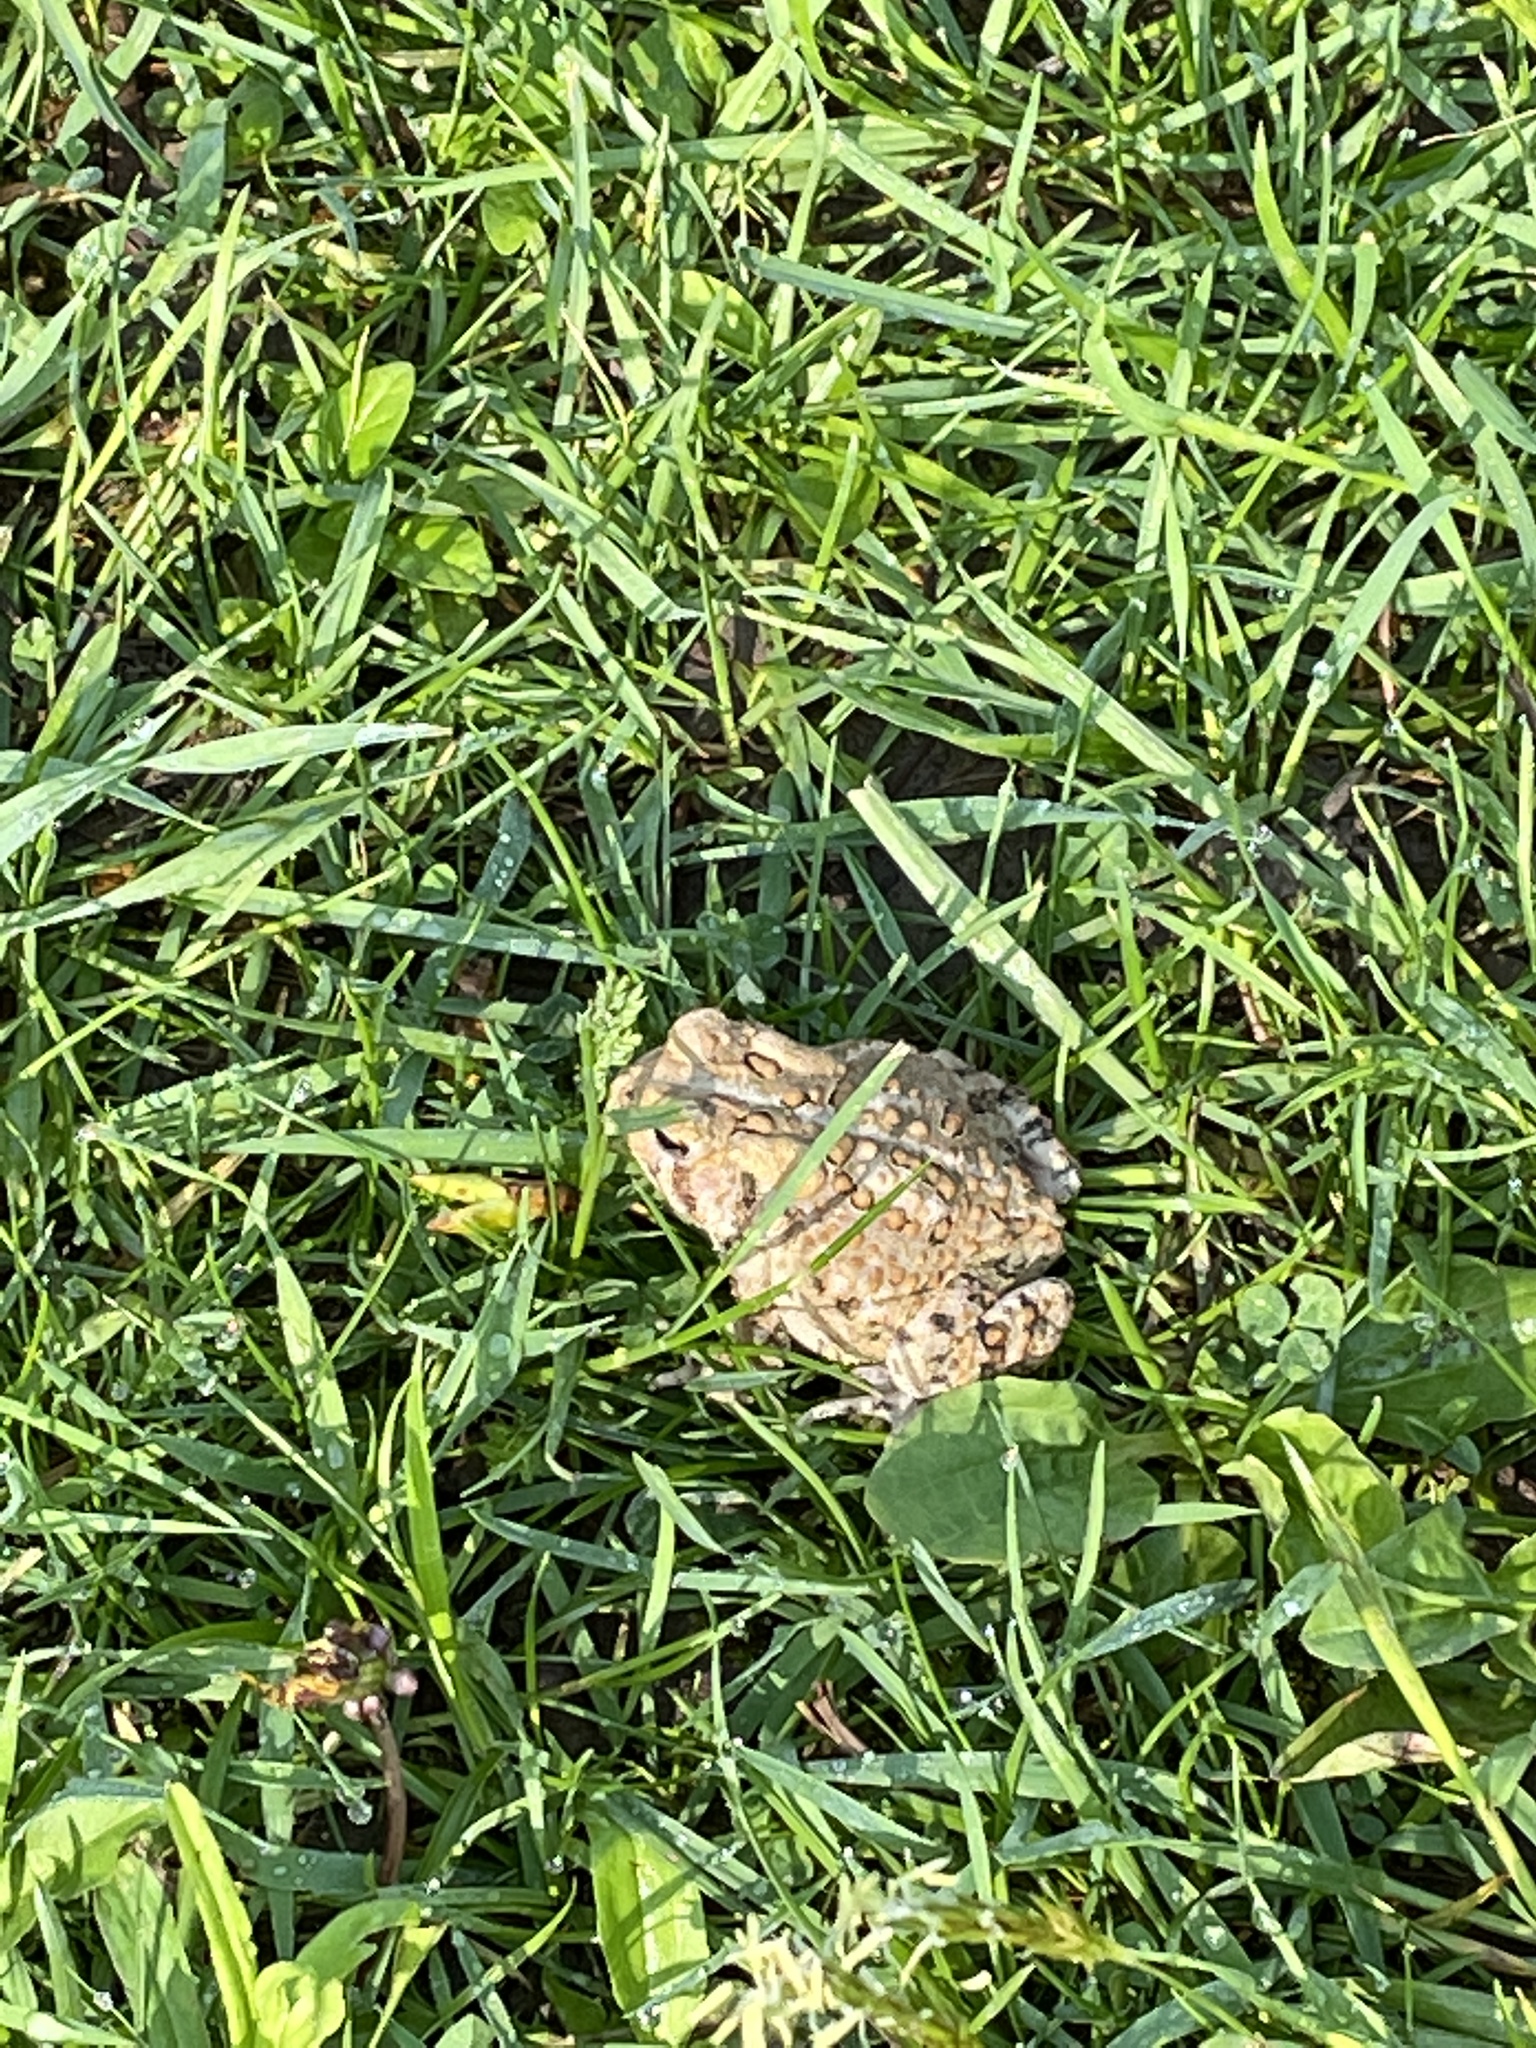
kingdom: Animalia
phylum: Chordata
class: Amphibia
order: Anura
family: Bufonidae
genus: Anaxyrus
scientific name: Anaxyrus americanus
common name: American toad
